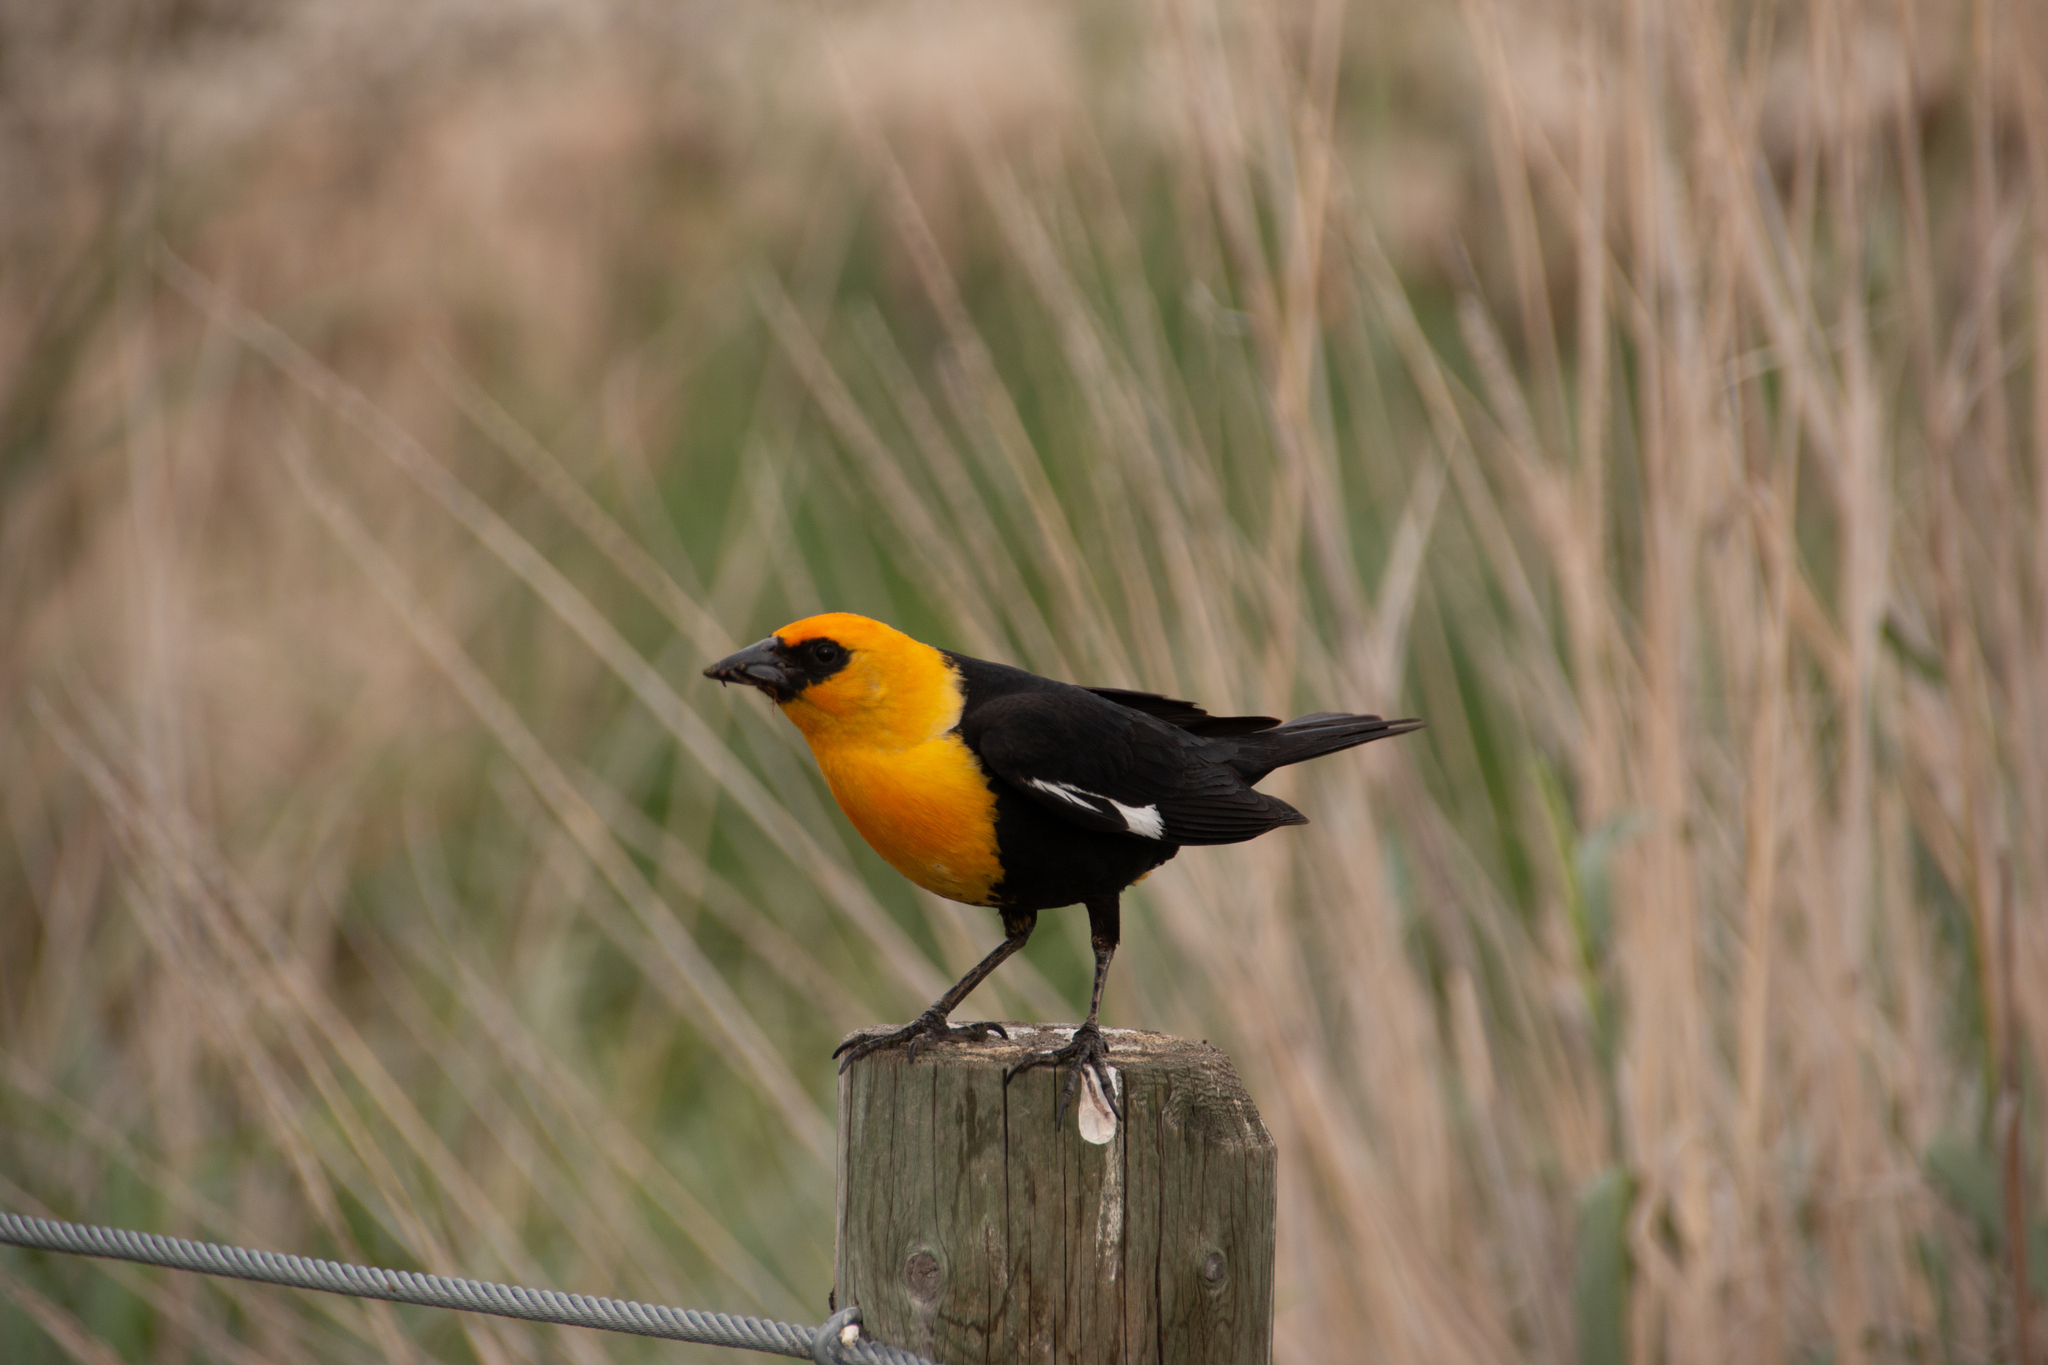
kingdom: Animalia
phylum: Chordata
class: Aves
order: Passeriformes
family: Icteridae
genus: Xanthocephalus
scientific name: Xanthocephalus xanthocephalus
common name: Yellow-headed blackbird
